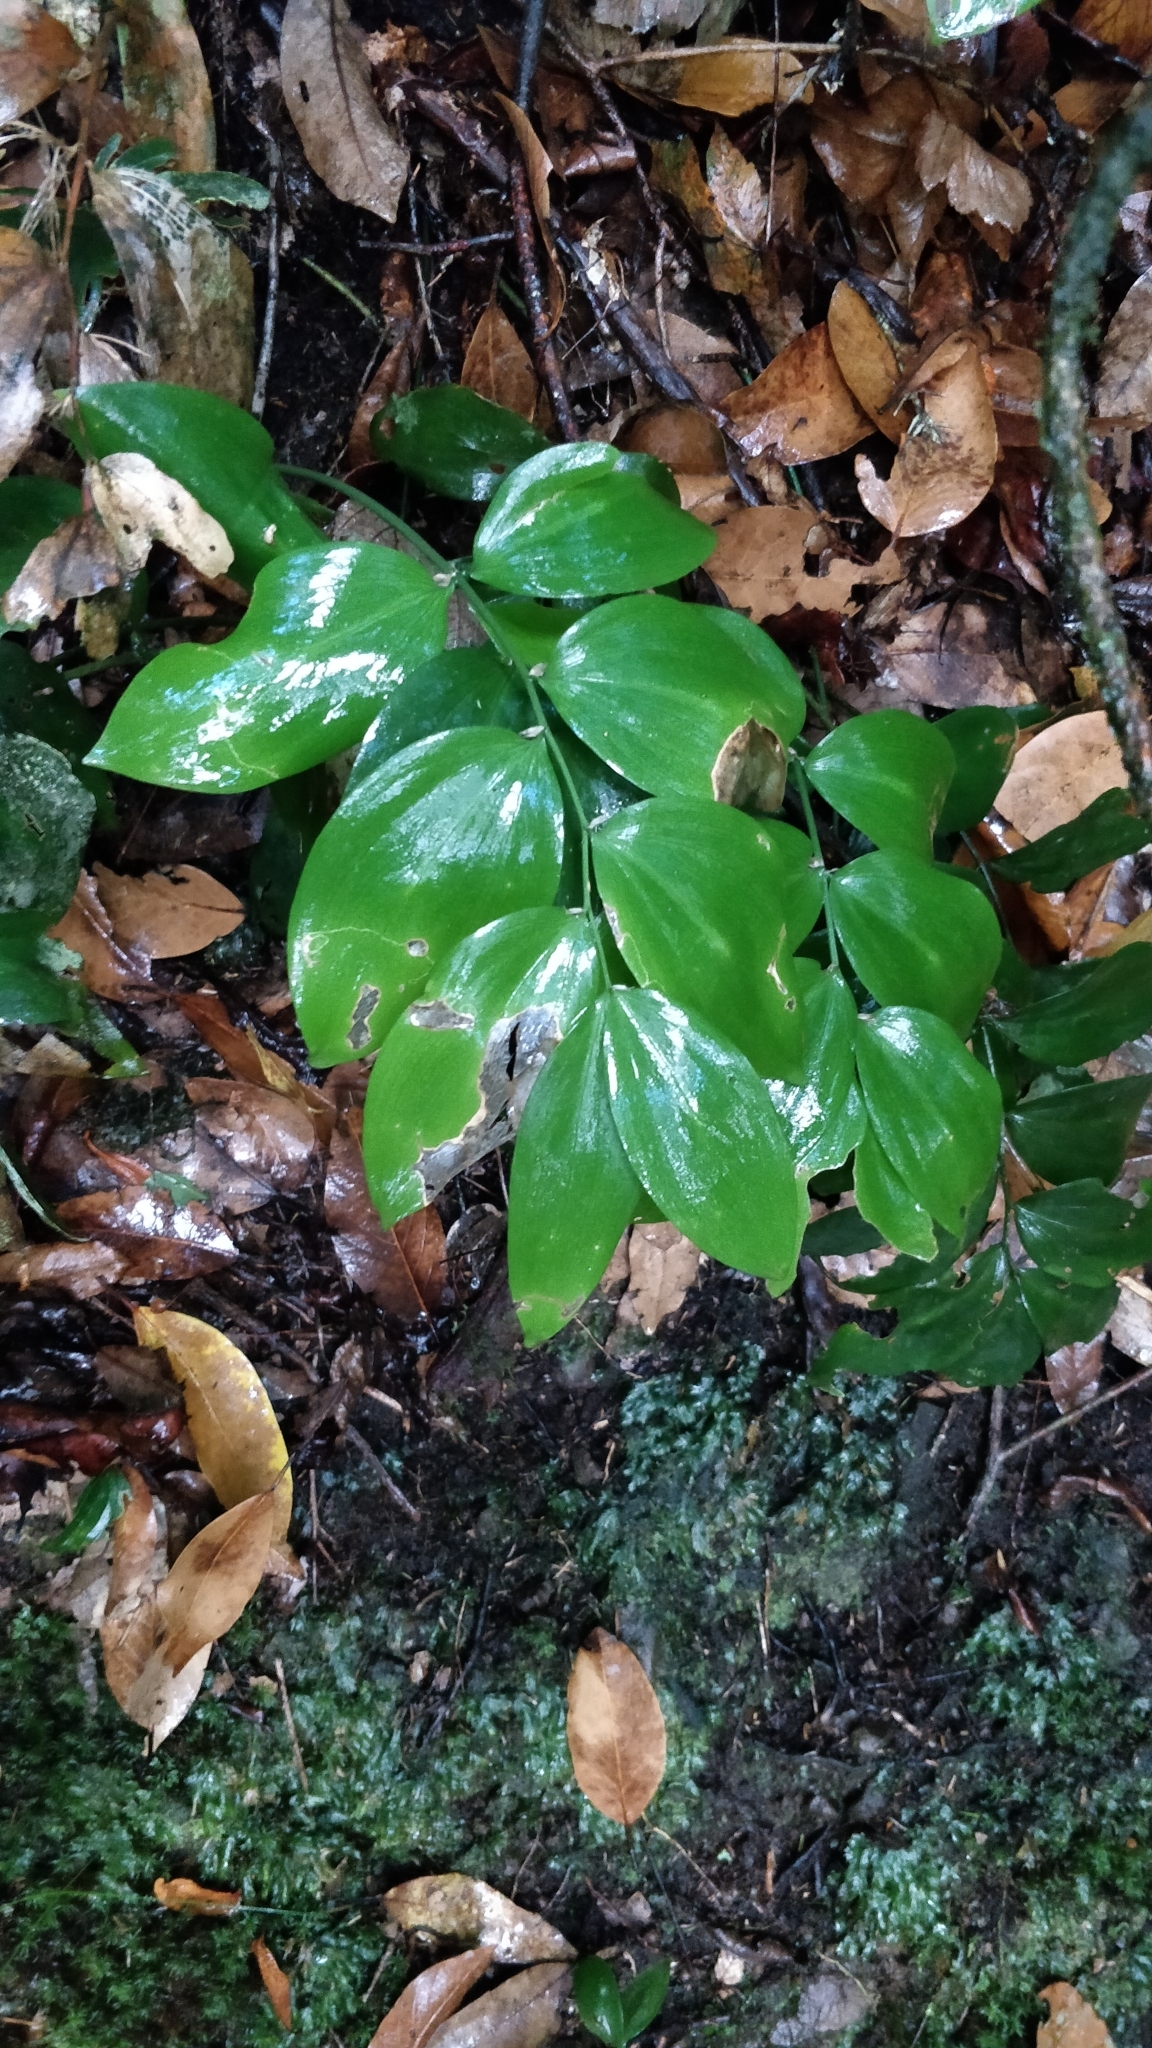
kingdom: Plantae
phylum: Tracheophyta
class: Liliopsida
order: Asparagales
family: Asparagaceae
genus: Semele
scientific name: Semele androgyna
